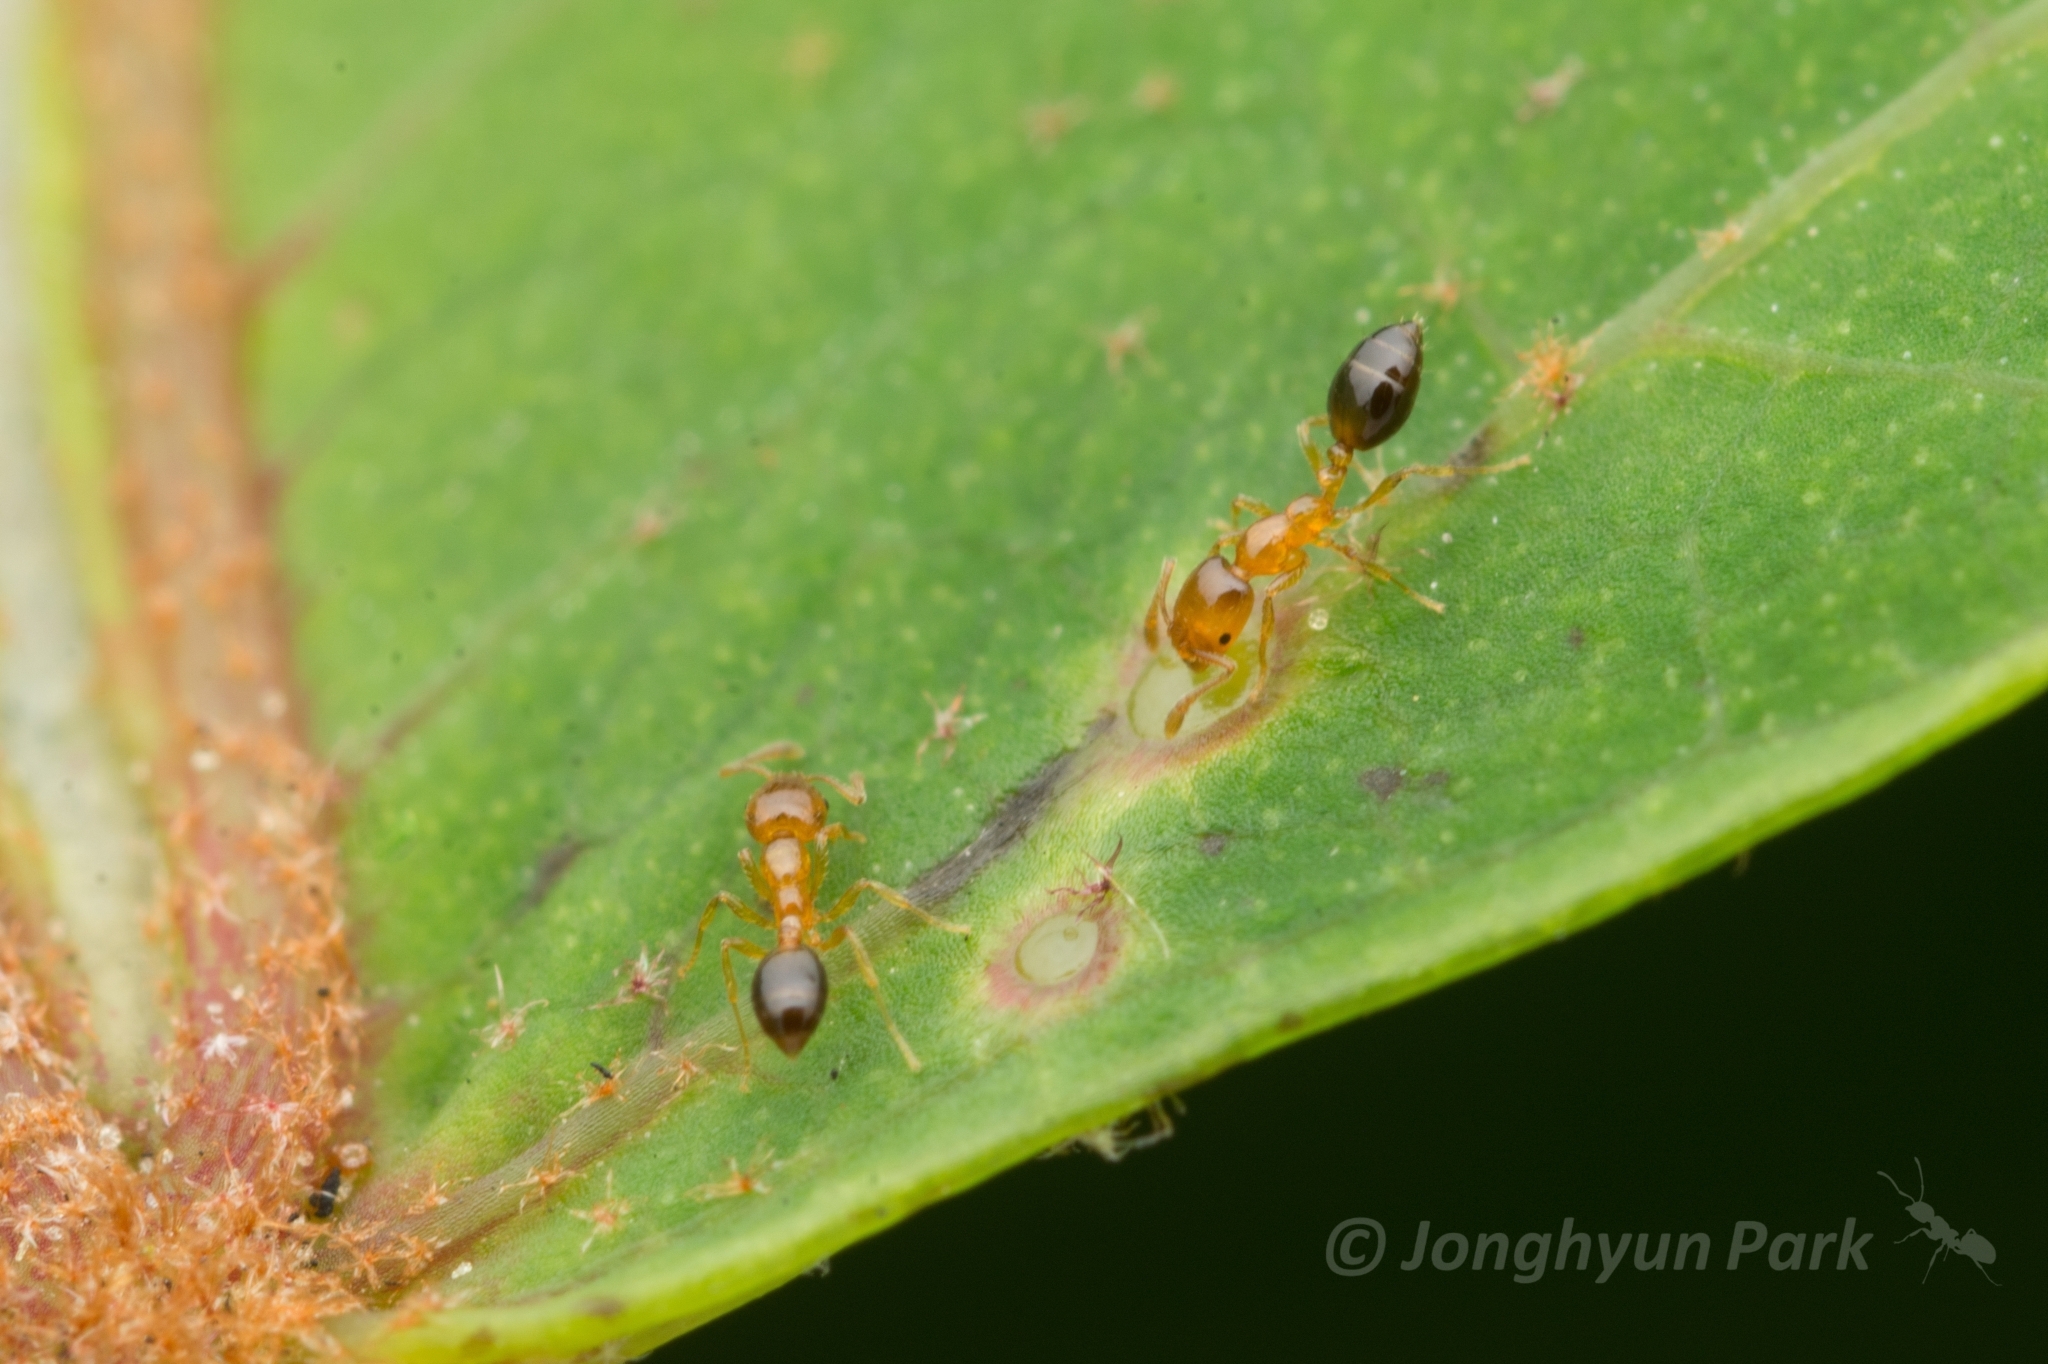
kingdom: Animalia
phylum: Arthropoda
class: Insecta
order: Hymenoptera
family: Formicidae
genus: Monomorium
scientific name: Monomorium intrudens
